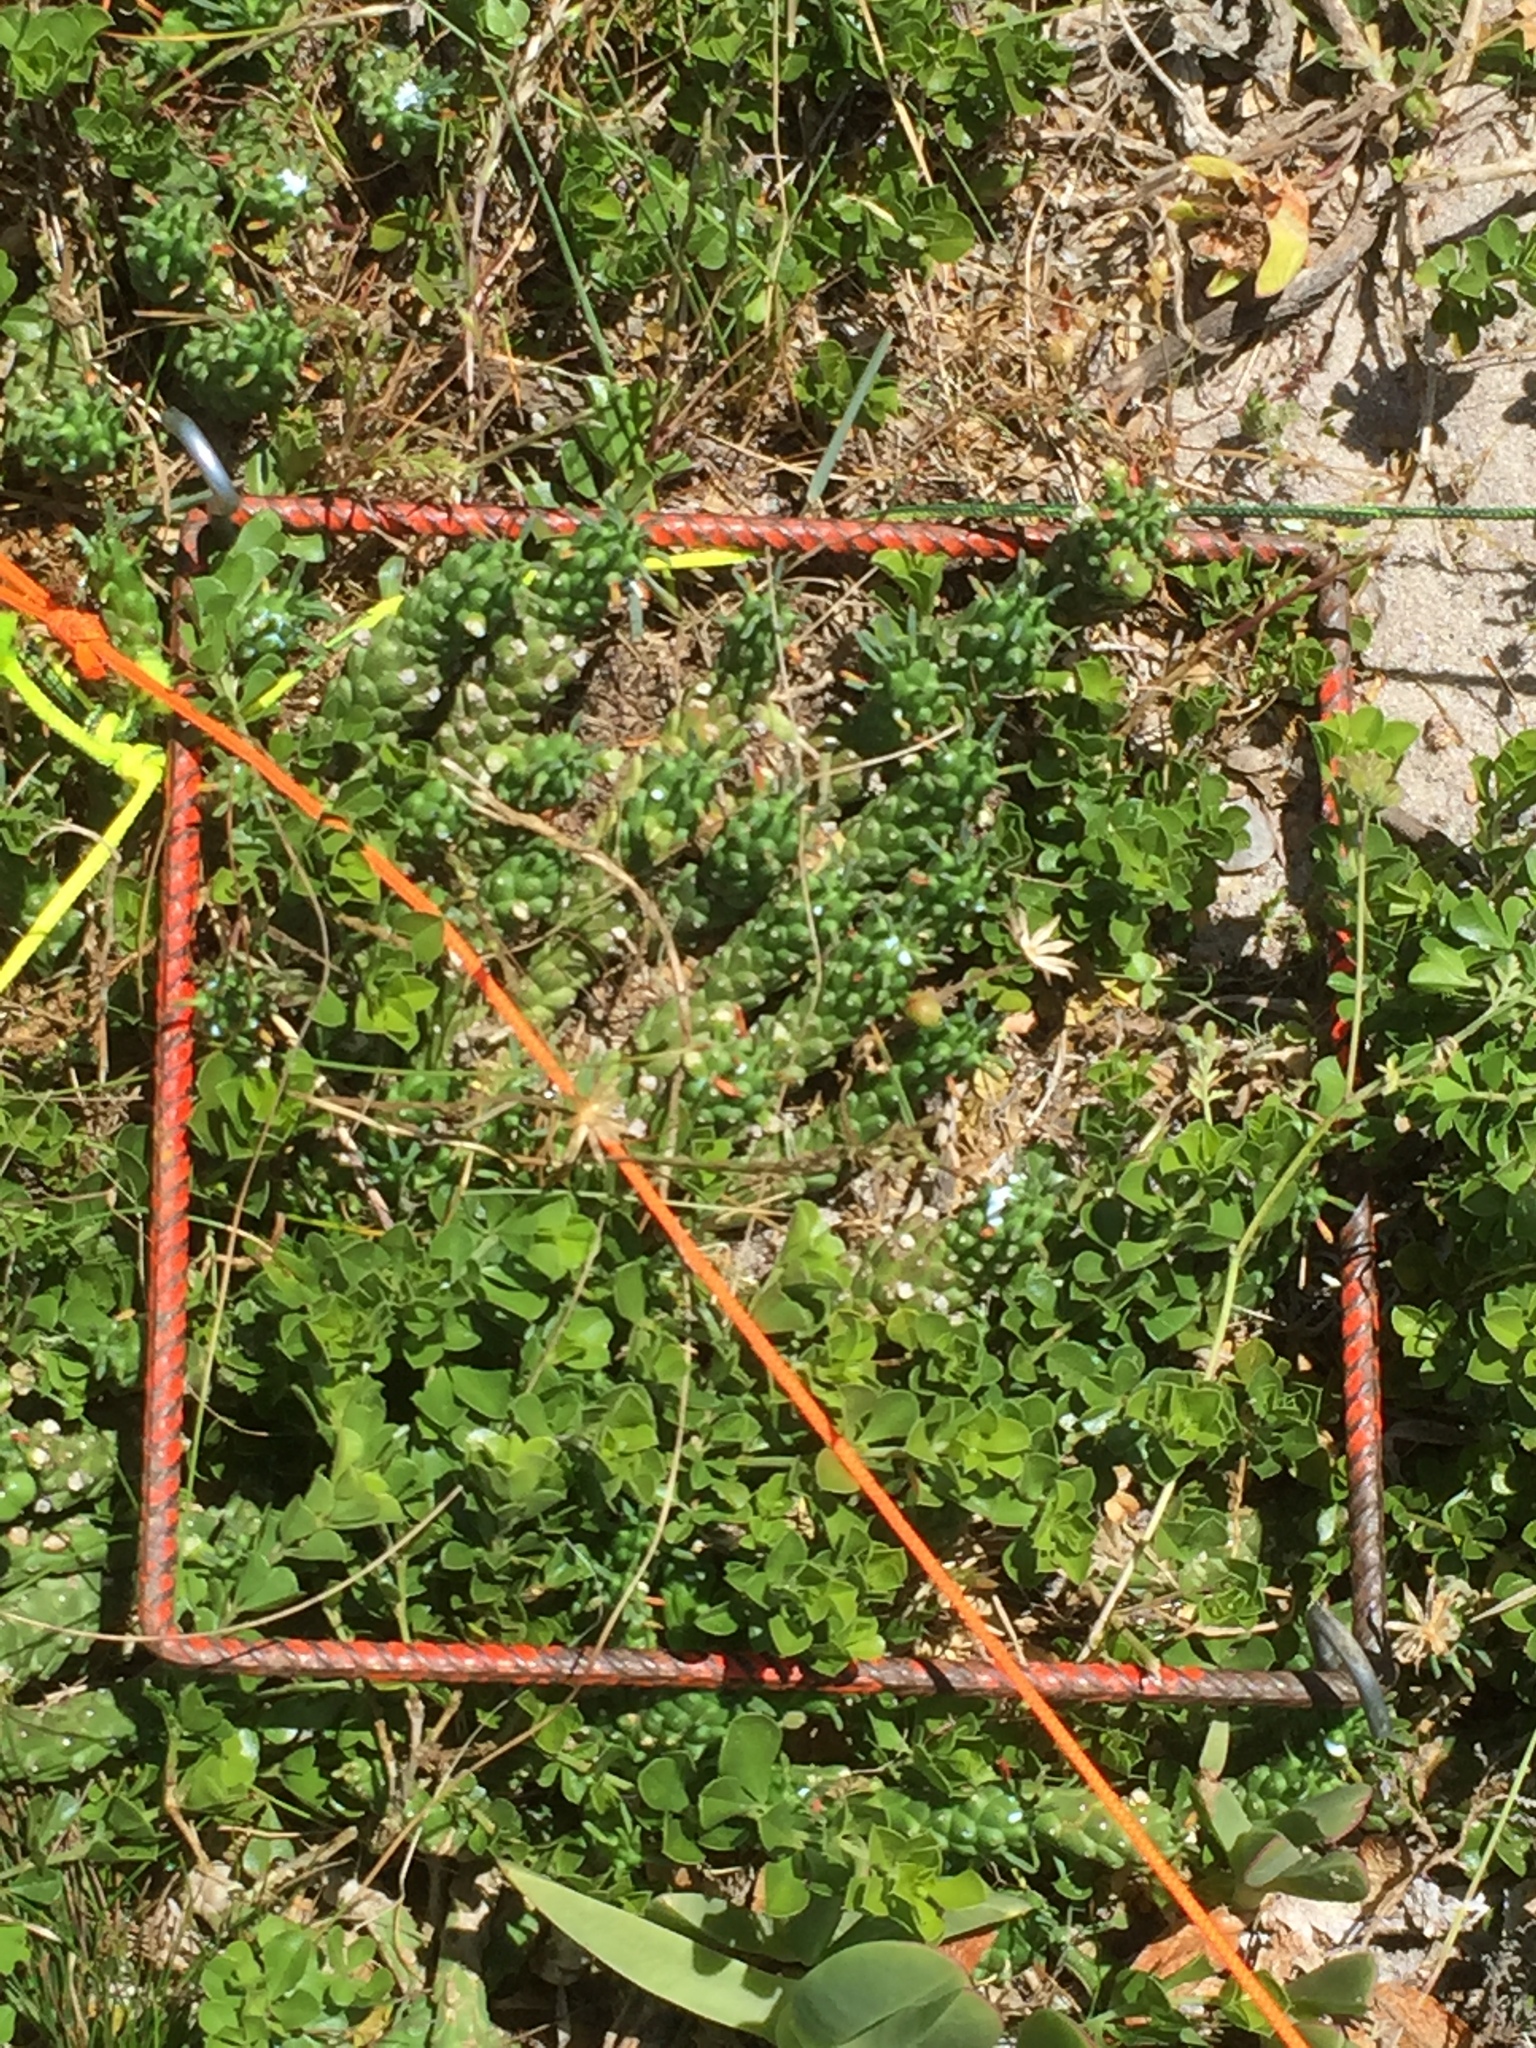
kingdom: Plantae
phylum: Tracheophyta
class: Magnoliopsida
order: Malpighiales
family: Euphorbiaceae
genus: Euphorbia
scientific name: Euphorbia caput-medusae
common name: Medusa's-head
